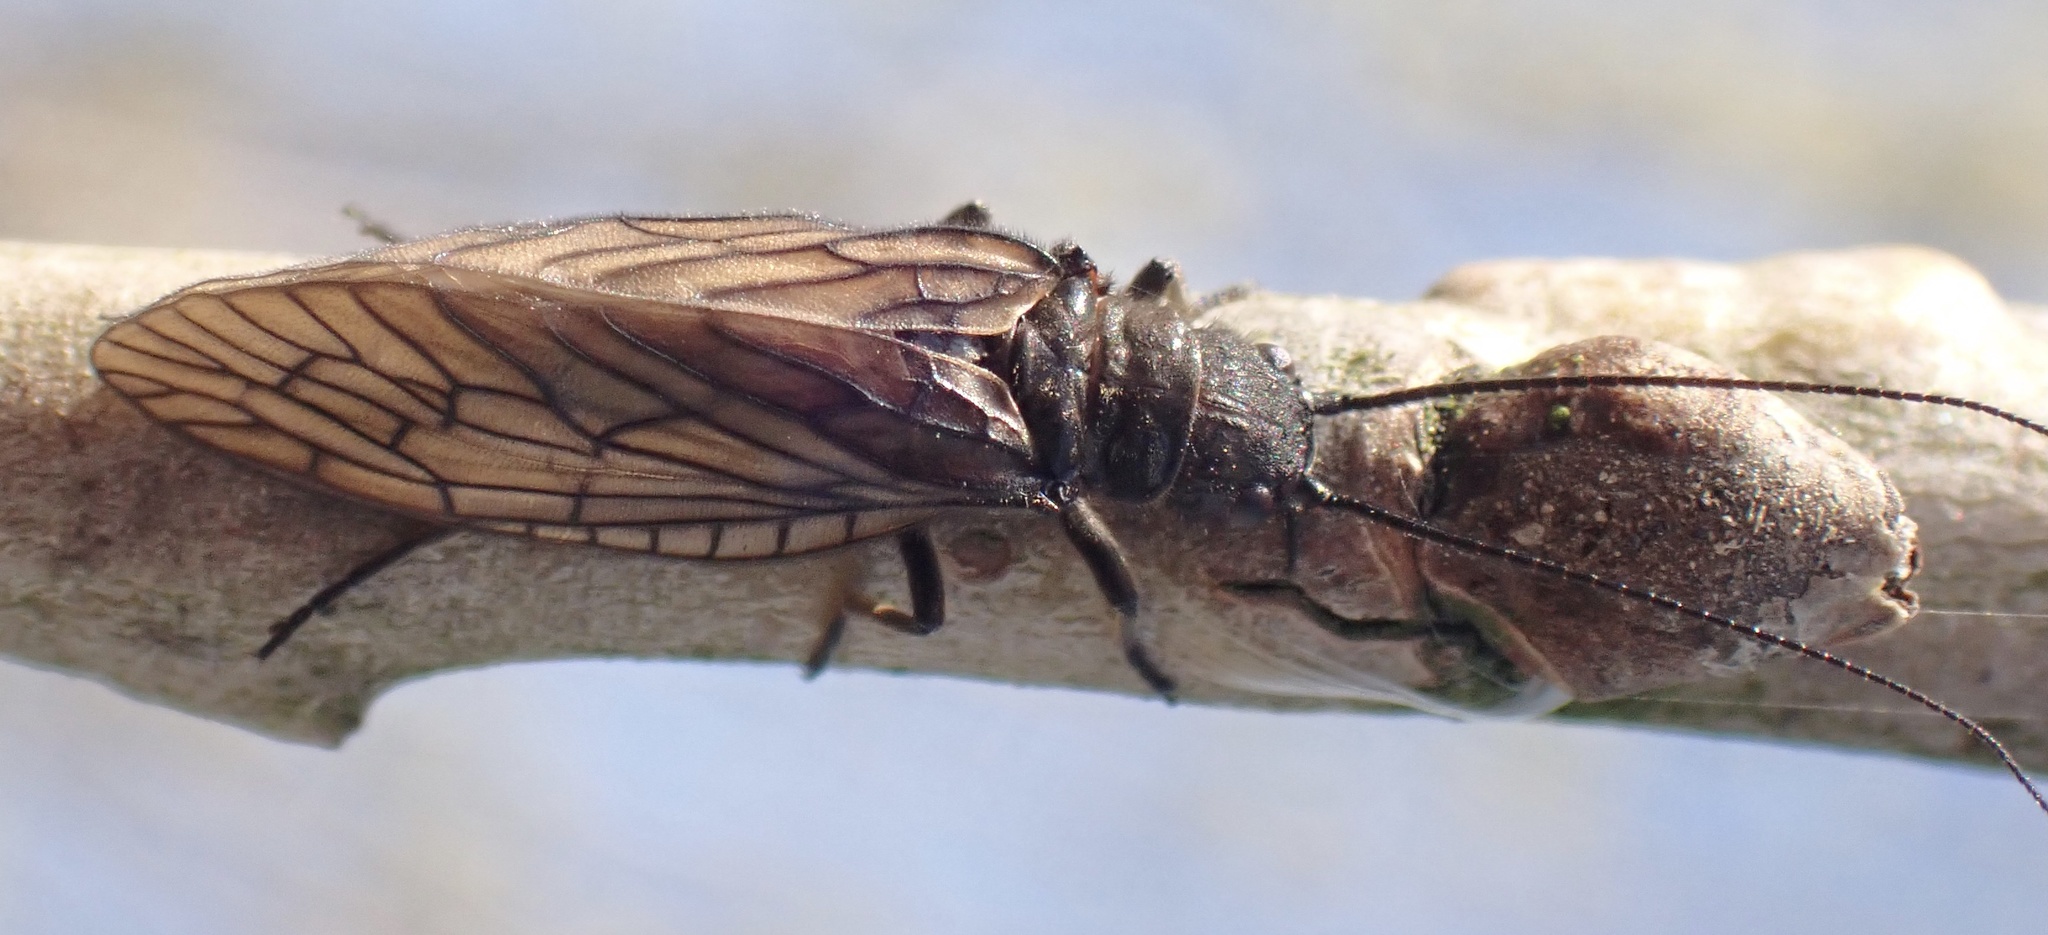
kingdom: Animalia
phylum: Arthropoda
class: Insecta
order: Megaloptera
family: Sialidae
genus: Sialis
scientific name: Sialis
